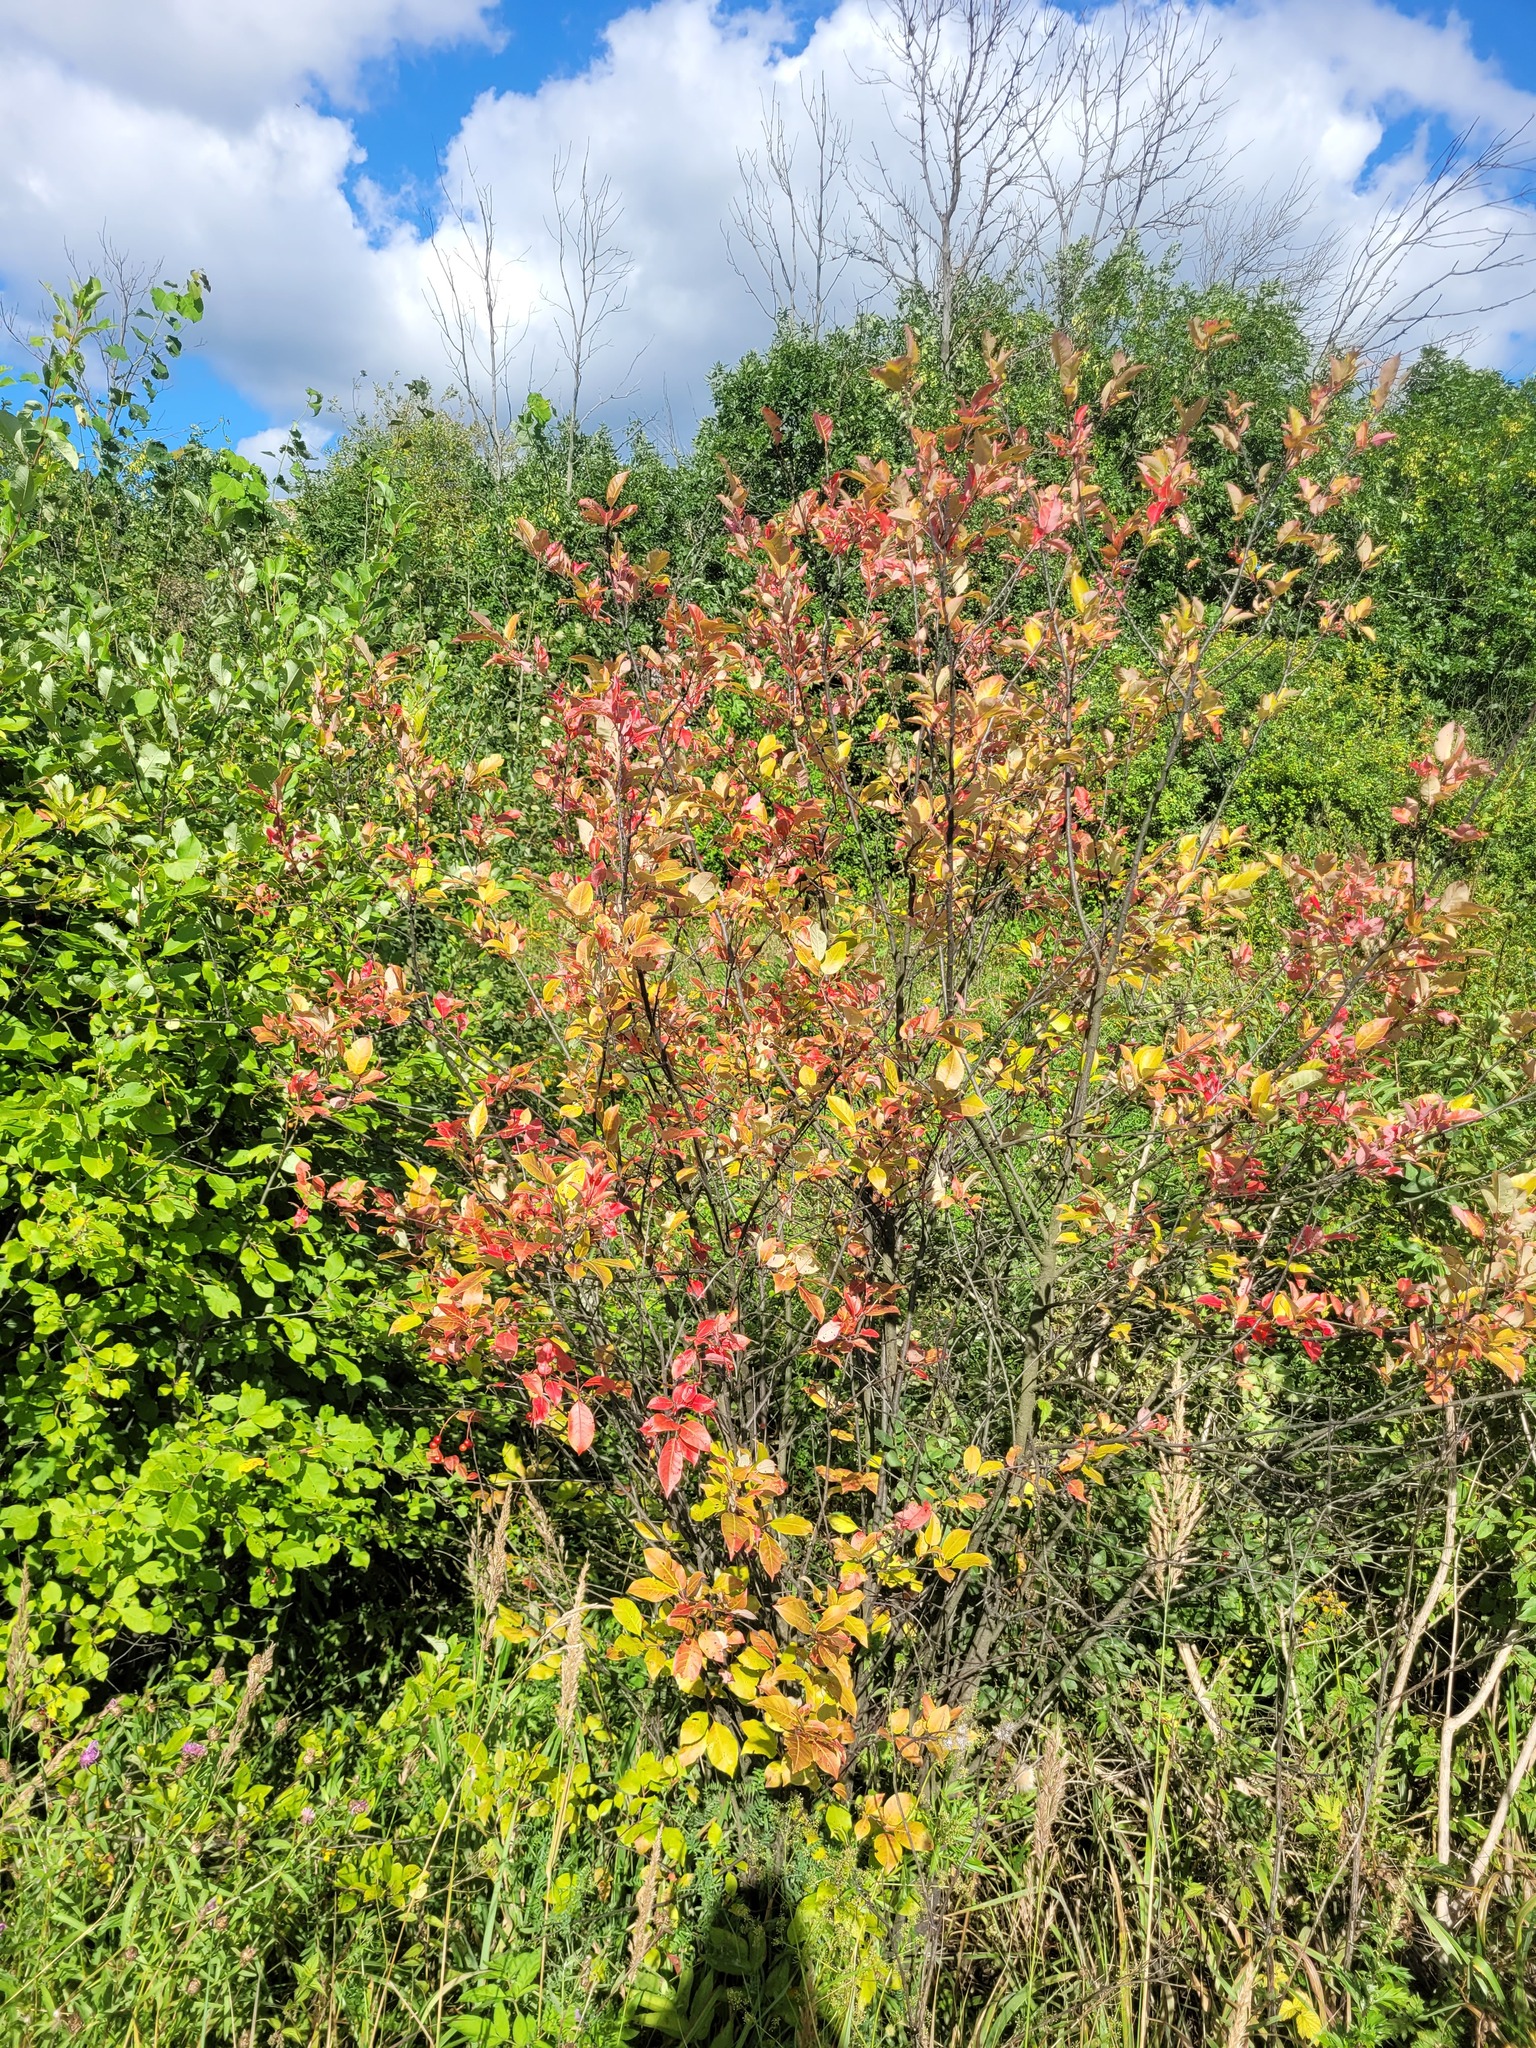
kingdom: Plantae
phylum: Tracheophyta
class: Magnoliopsida
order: Rosales
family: Rosaceae
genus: Prunus
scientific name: Prunus virginiana
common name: Chokecherry
